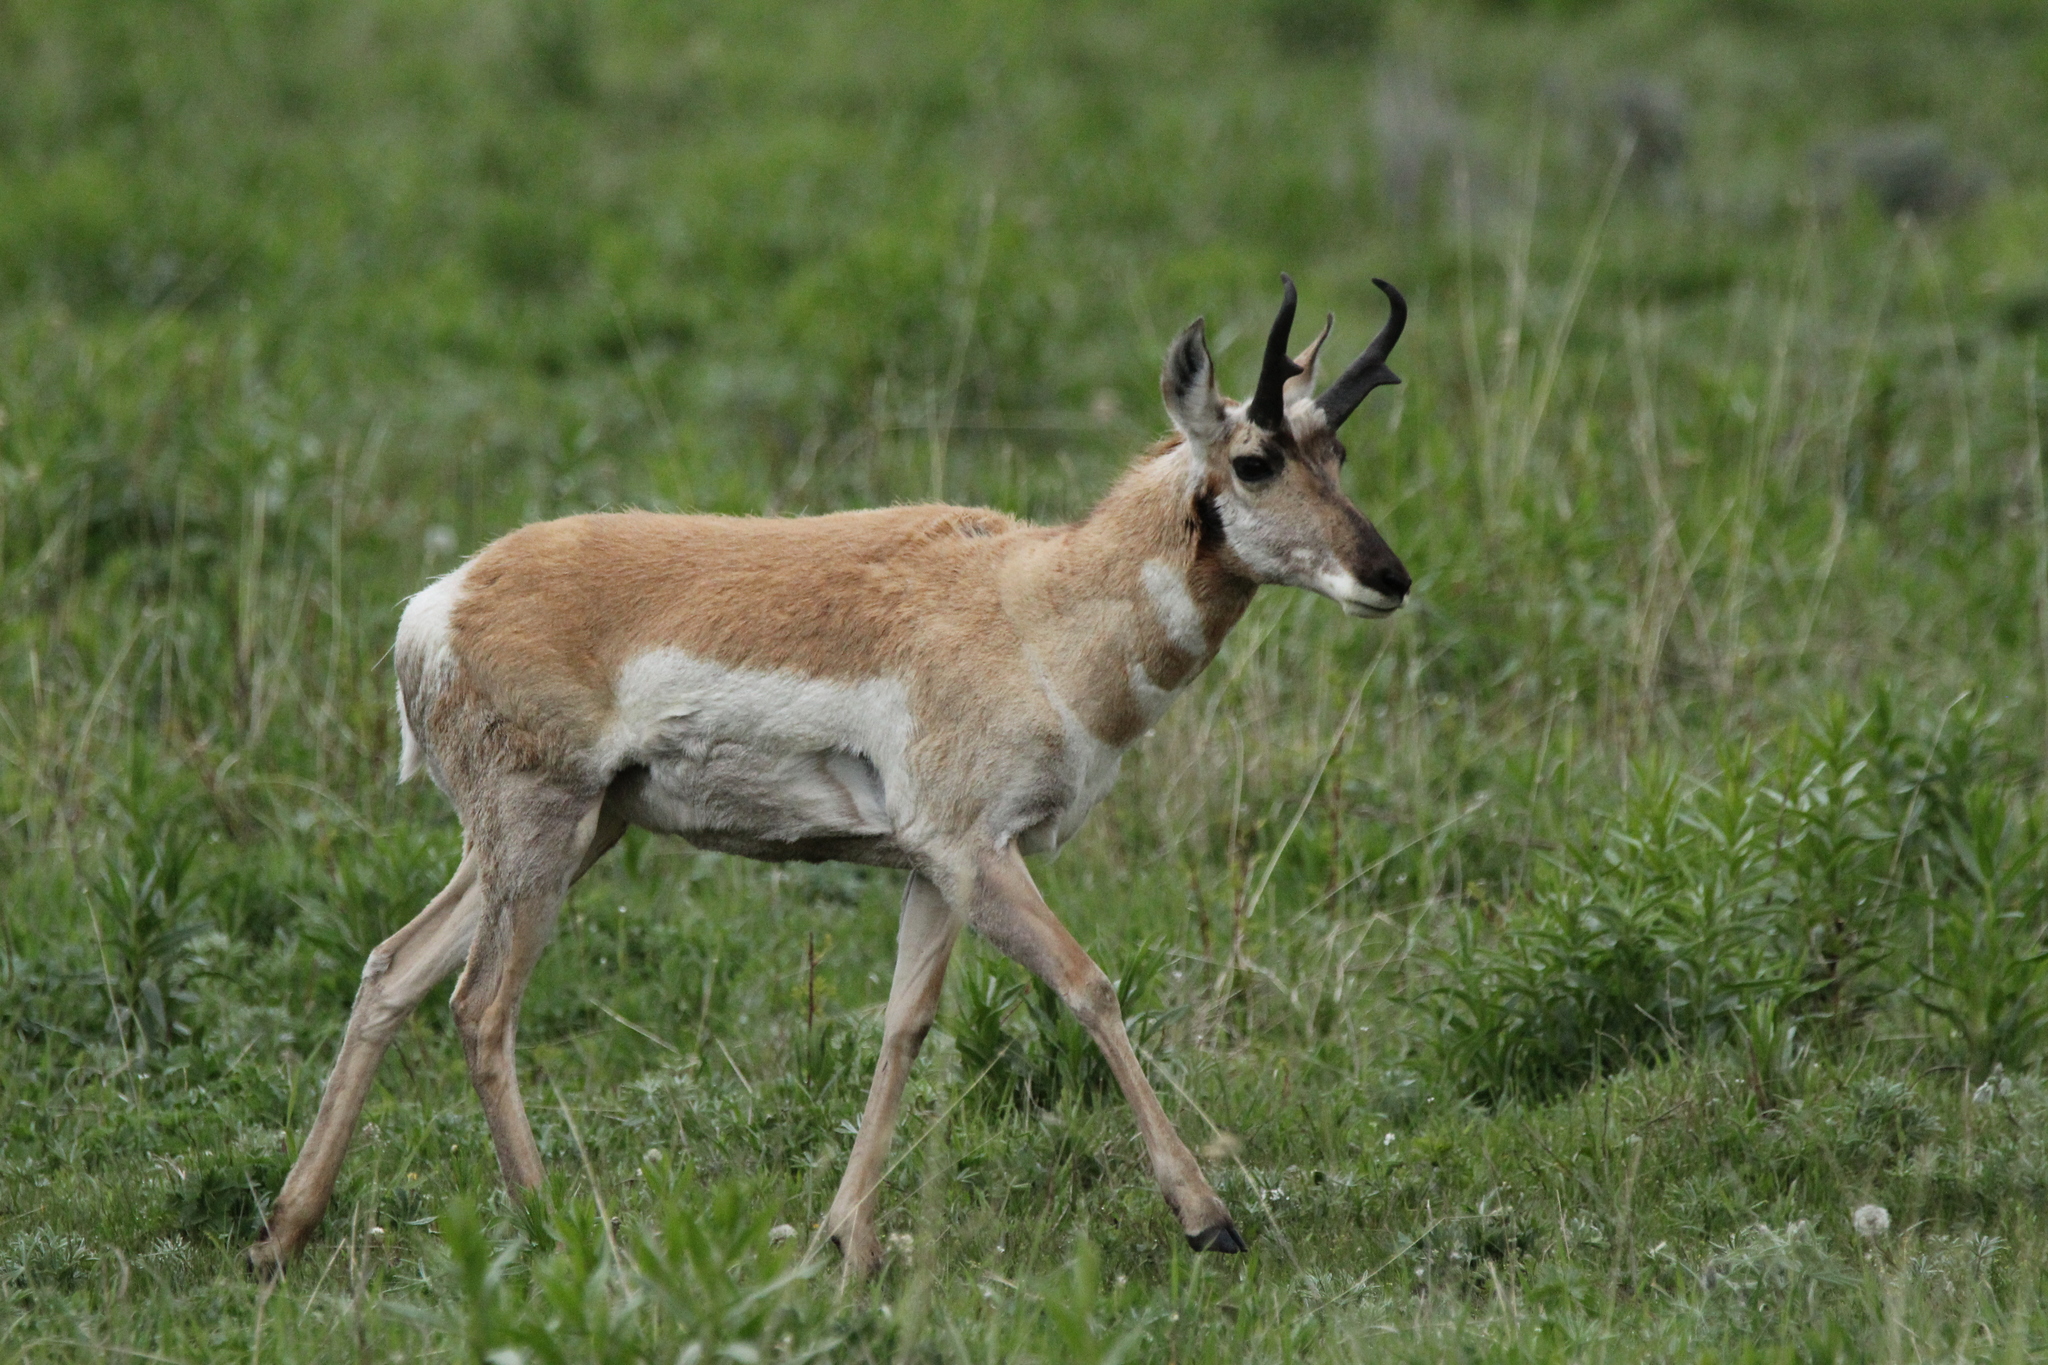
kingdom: Animalia
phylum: Chordata
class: Mammalia
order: Artiodactyla
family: Antilocapridae
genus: Antilocapra
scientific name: Antilocapra americana
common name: Pronghorn
